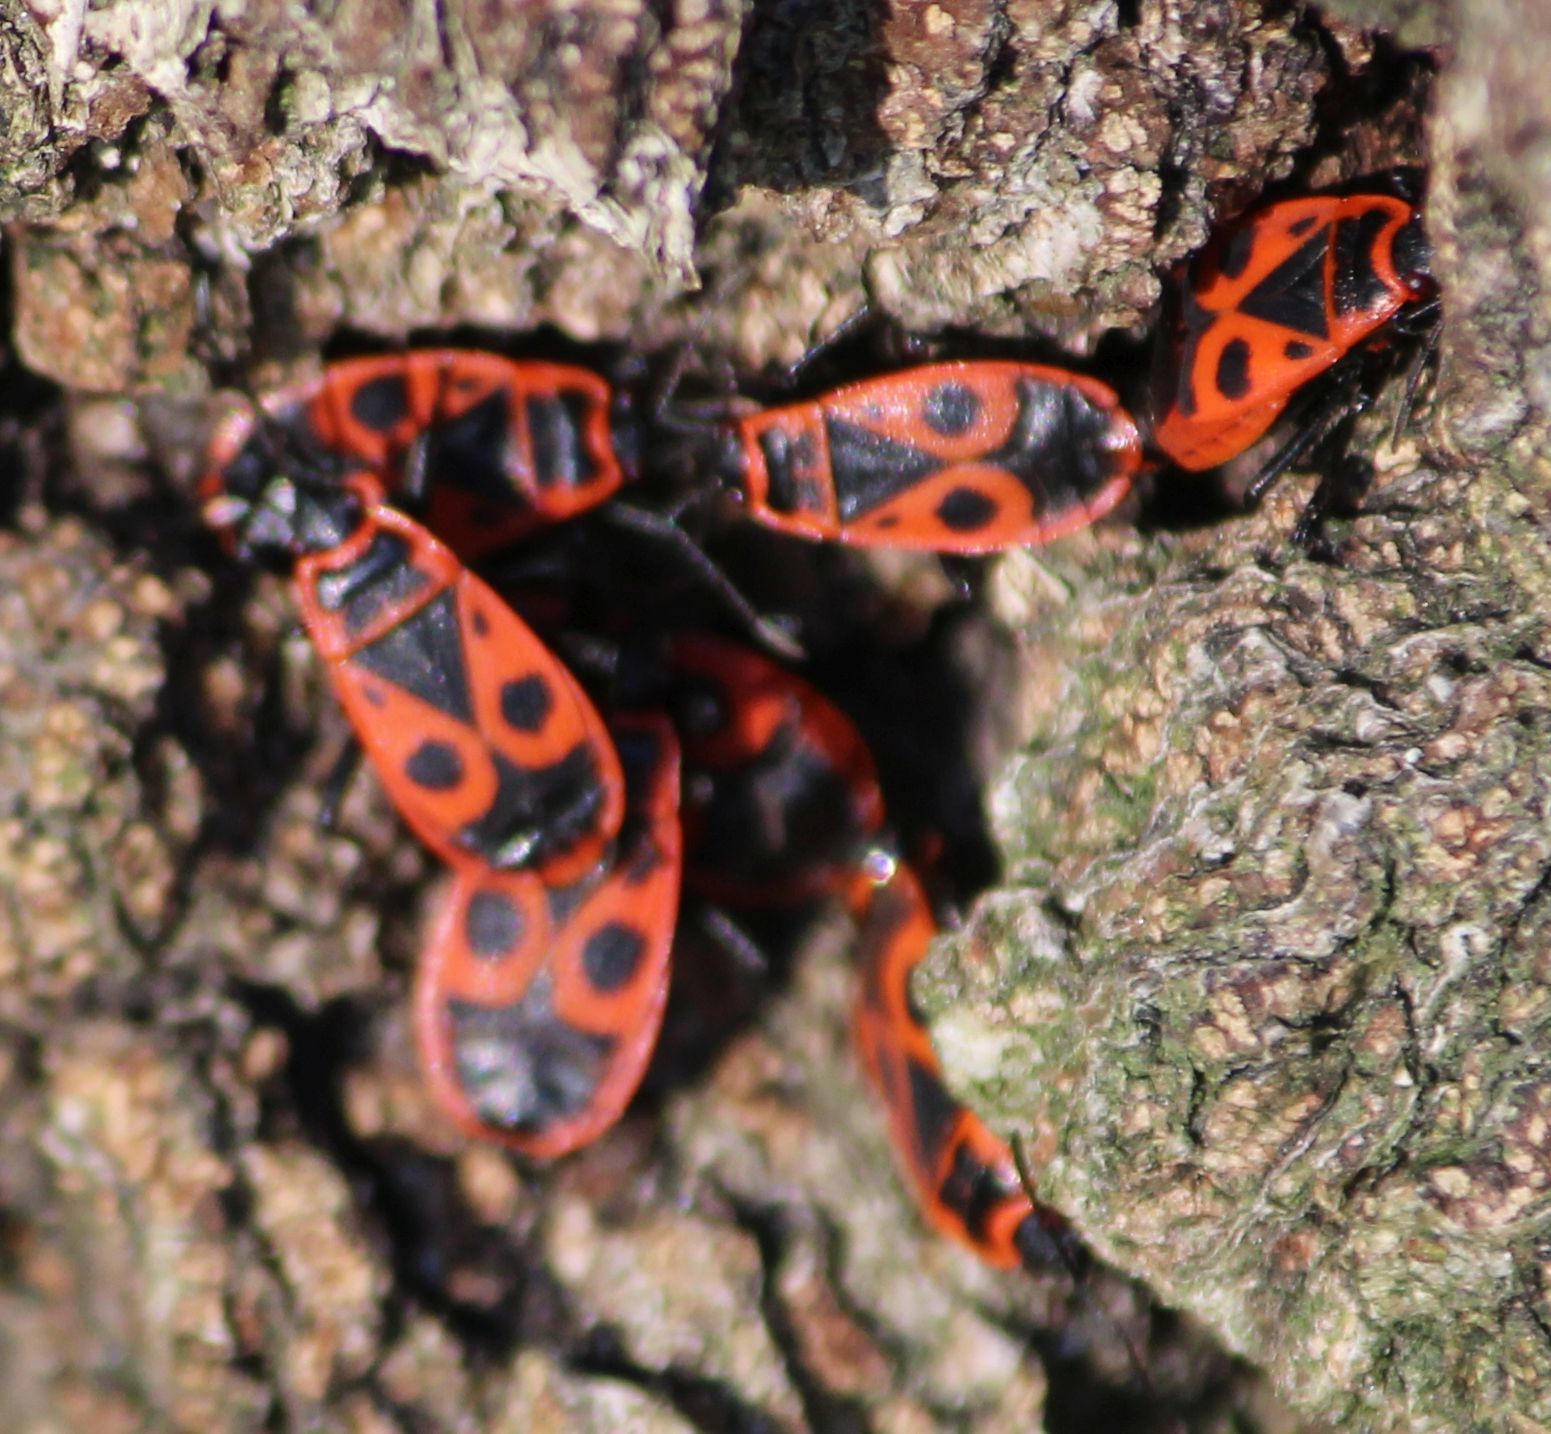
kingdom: Animalia
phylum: Arthropoda
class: Insecta
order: Hemiptera
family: Pyrrhocoridae
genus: Pyrrhocoris
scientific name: Pyrrhocoris apterus
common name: Firebug
